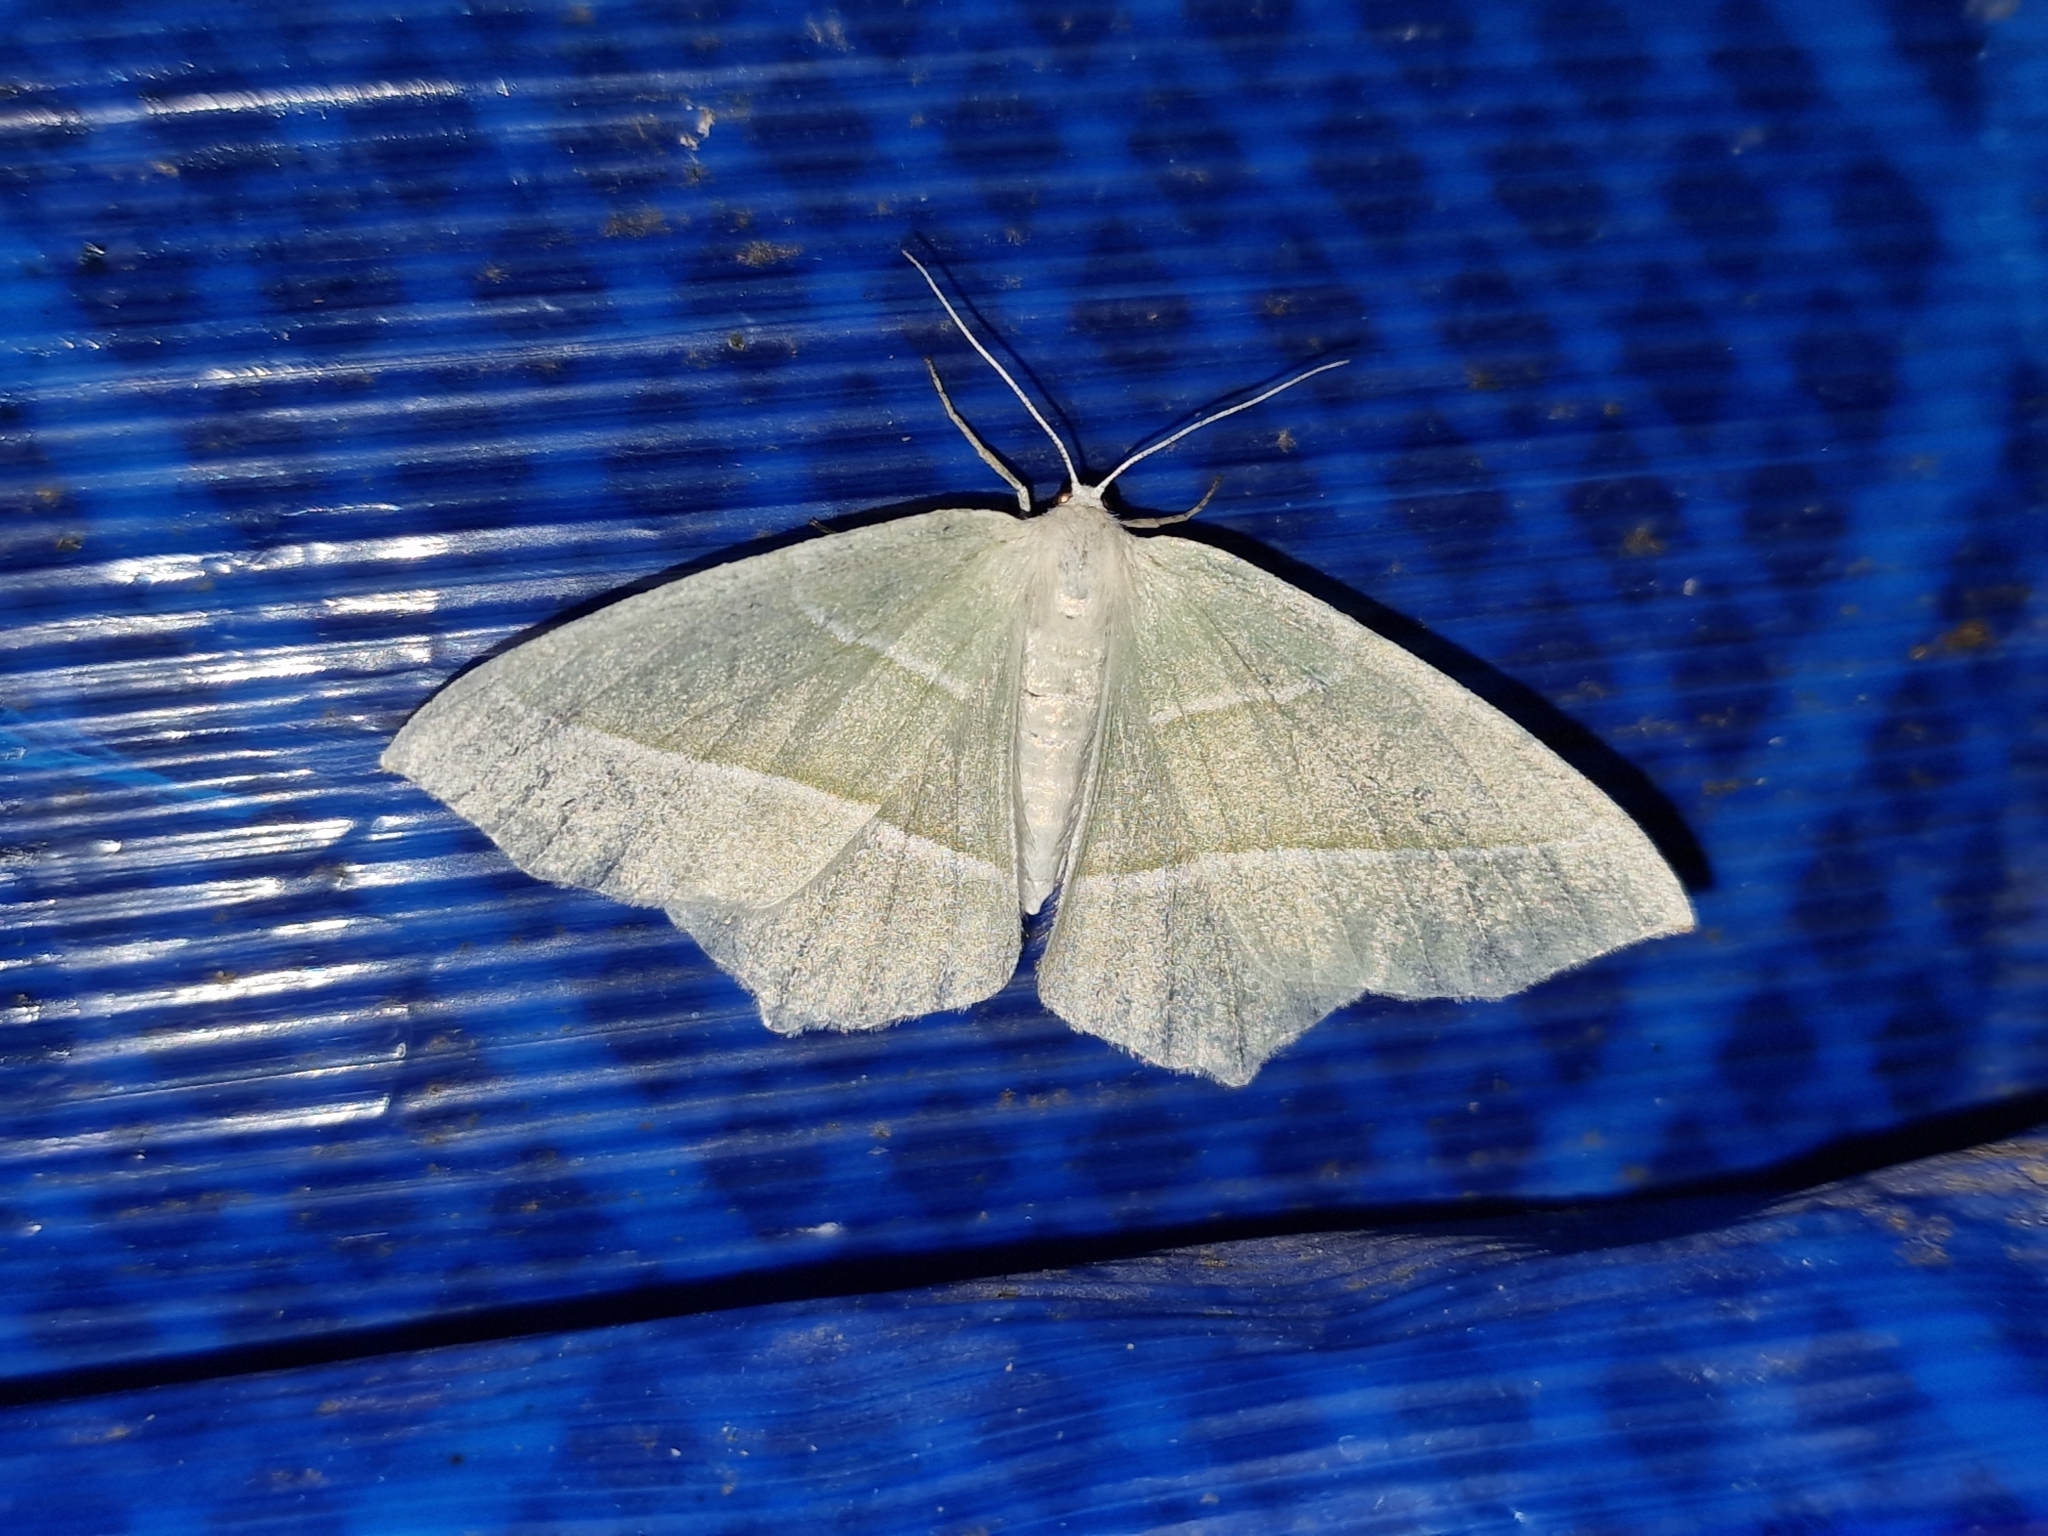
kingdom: Animalia
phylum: Arthropoda
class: Insecta
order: Lepidoptera
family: Geometridae
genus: Campaea
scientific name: Campaea margaritaria
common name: Light emerald
